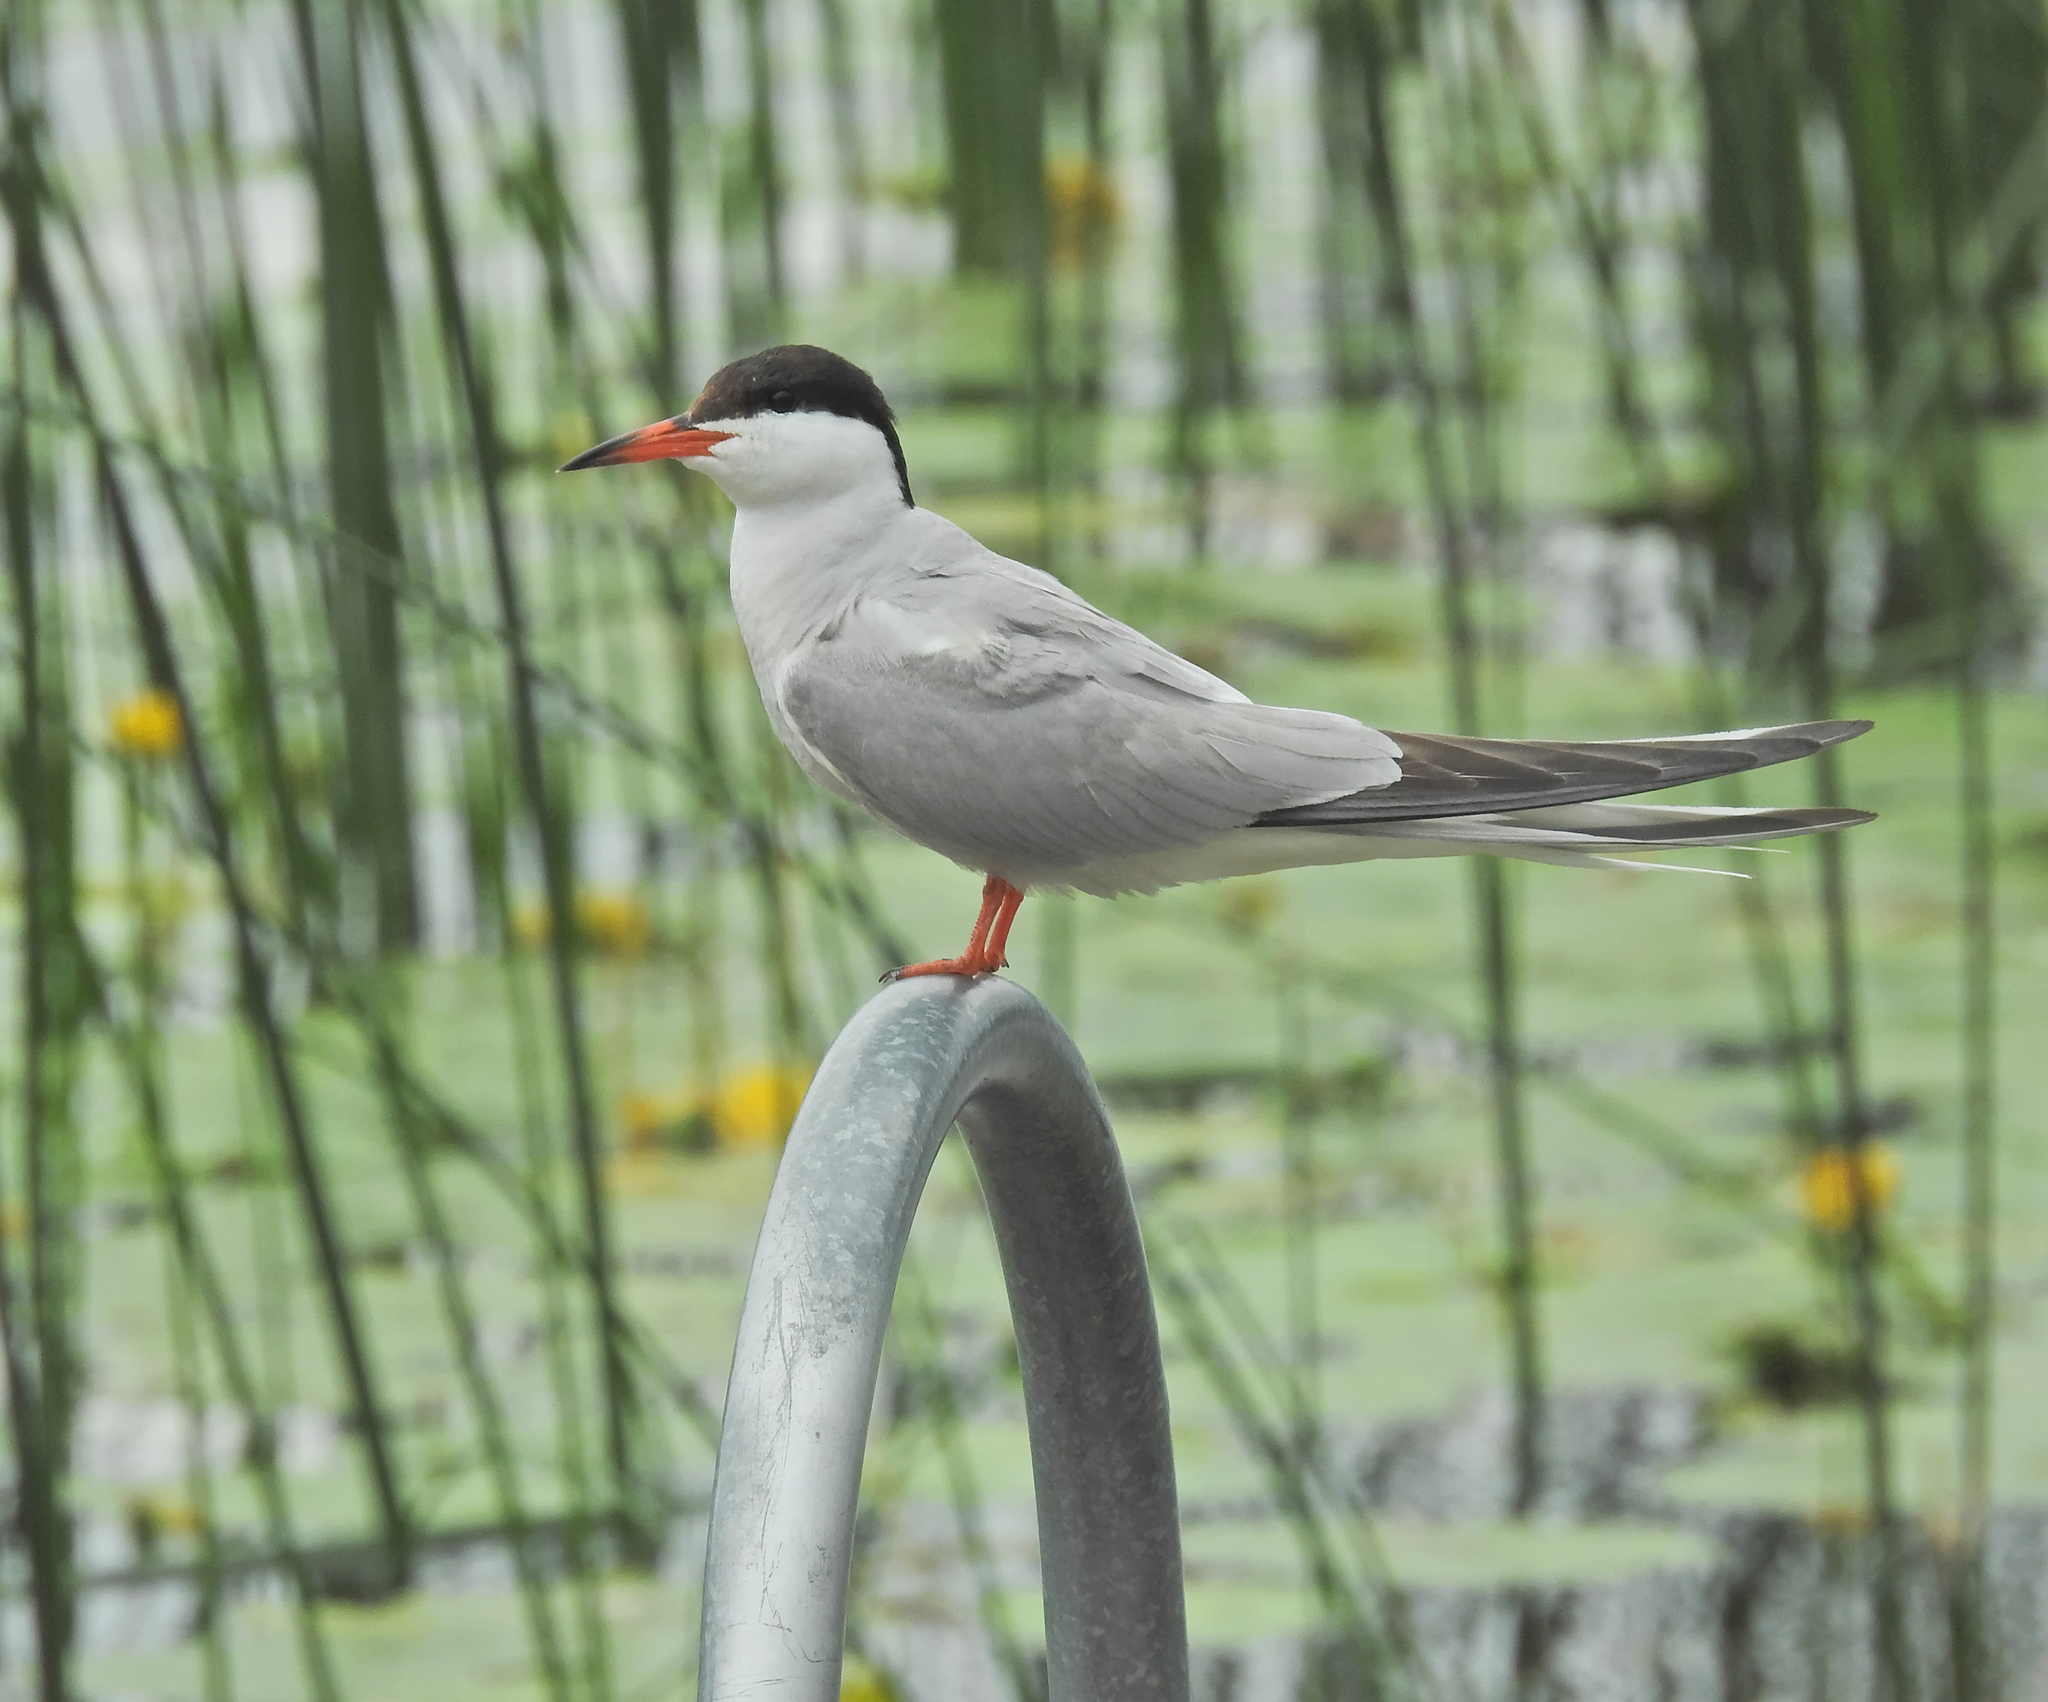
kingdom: Animalia
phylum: Chordata
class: Aves
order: Charadriiformes
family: Laridae
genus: Sterna
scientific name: Sterna hirundo
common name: Common tern
